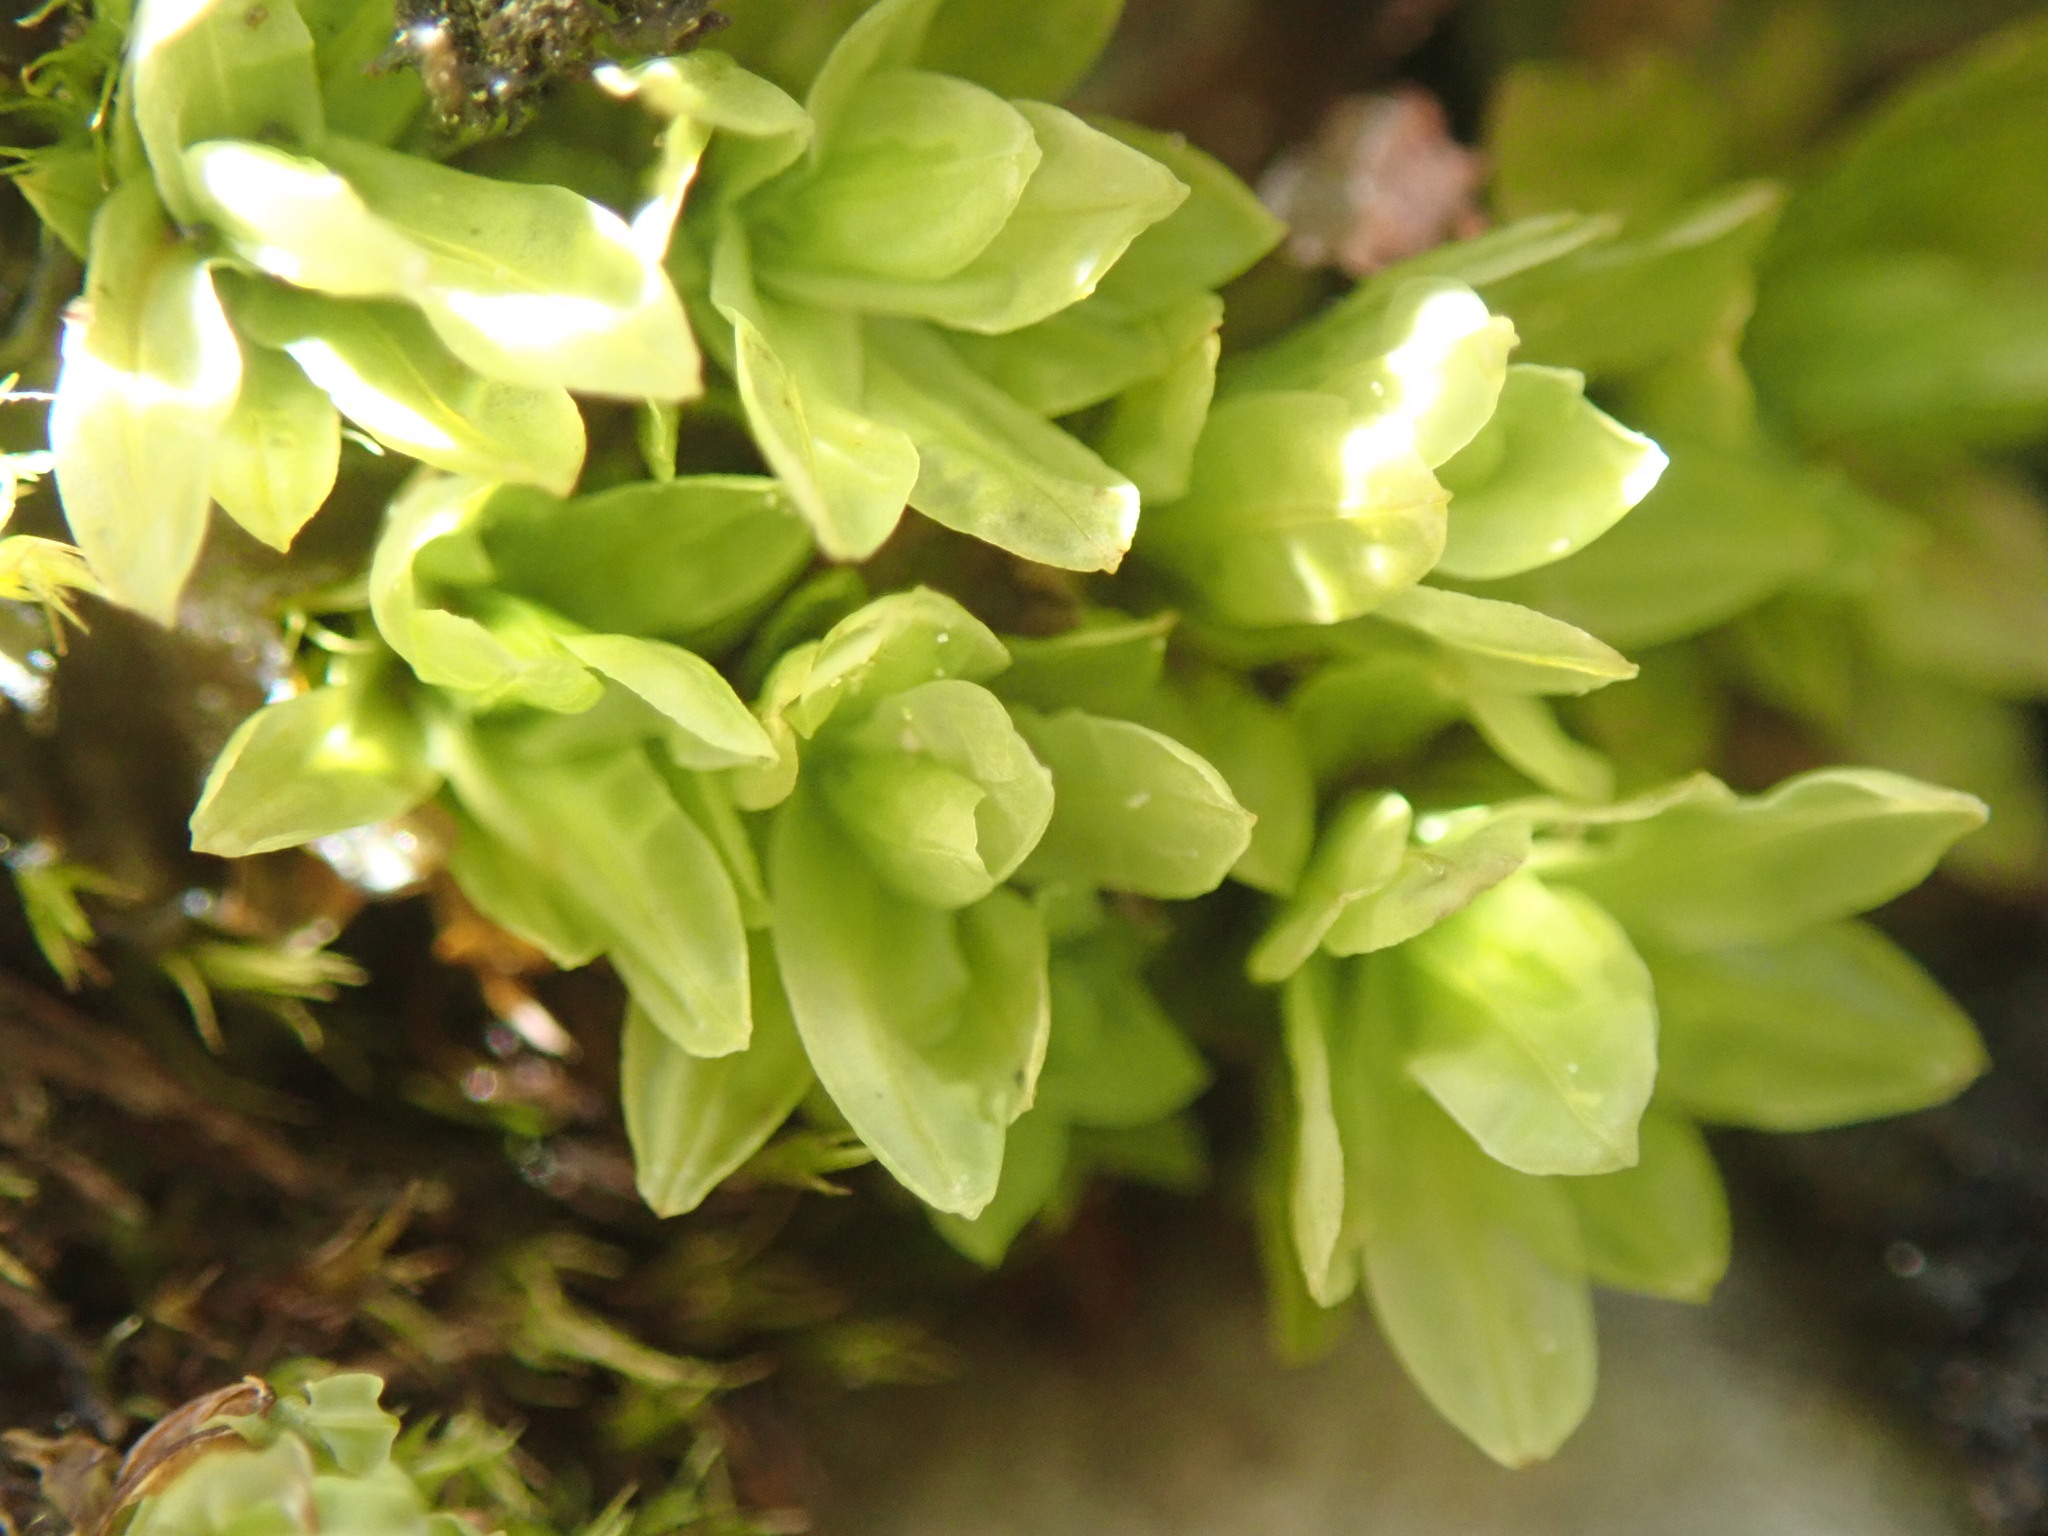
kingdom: Plantae
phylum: Bryophyta
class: Bryopsida
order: Encalyptales
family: Encalyptaceae
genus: Encalypta
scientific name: Encalypta streptocarpa
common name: Spiral extinguisher-moss
